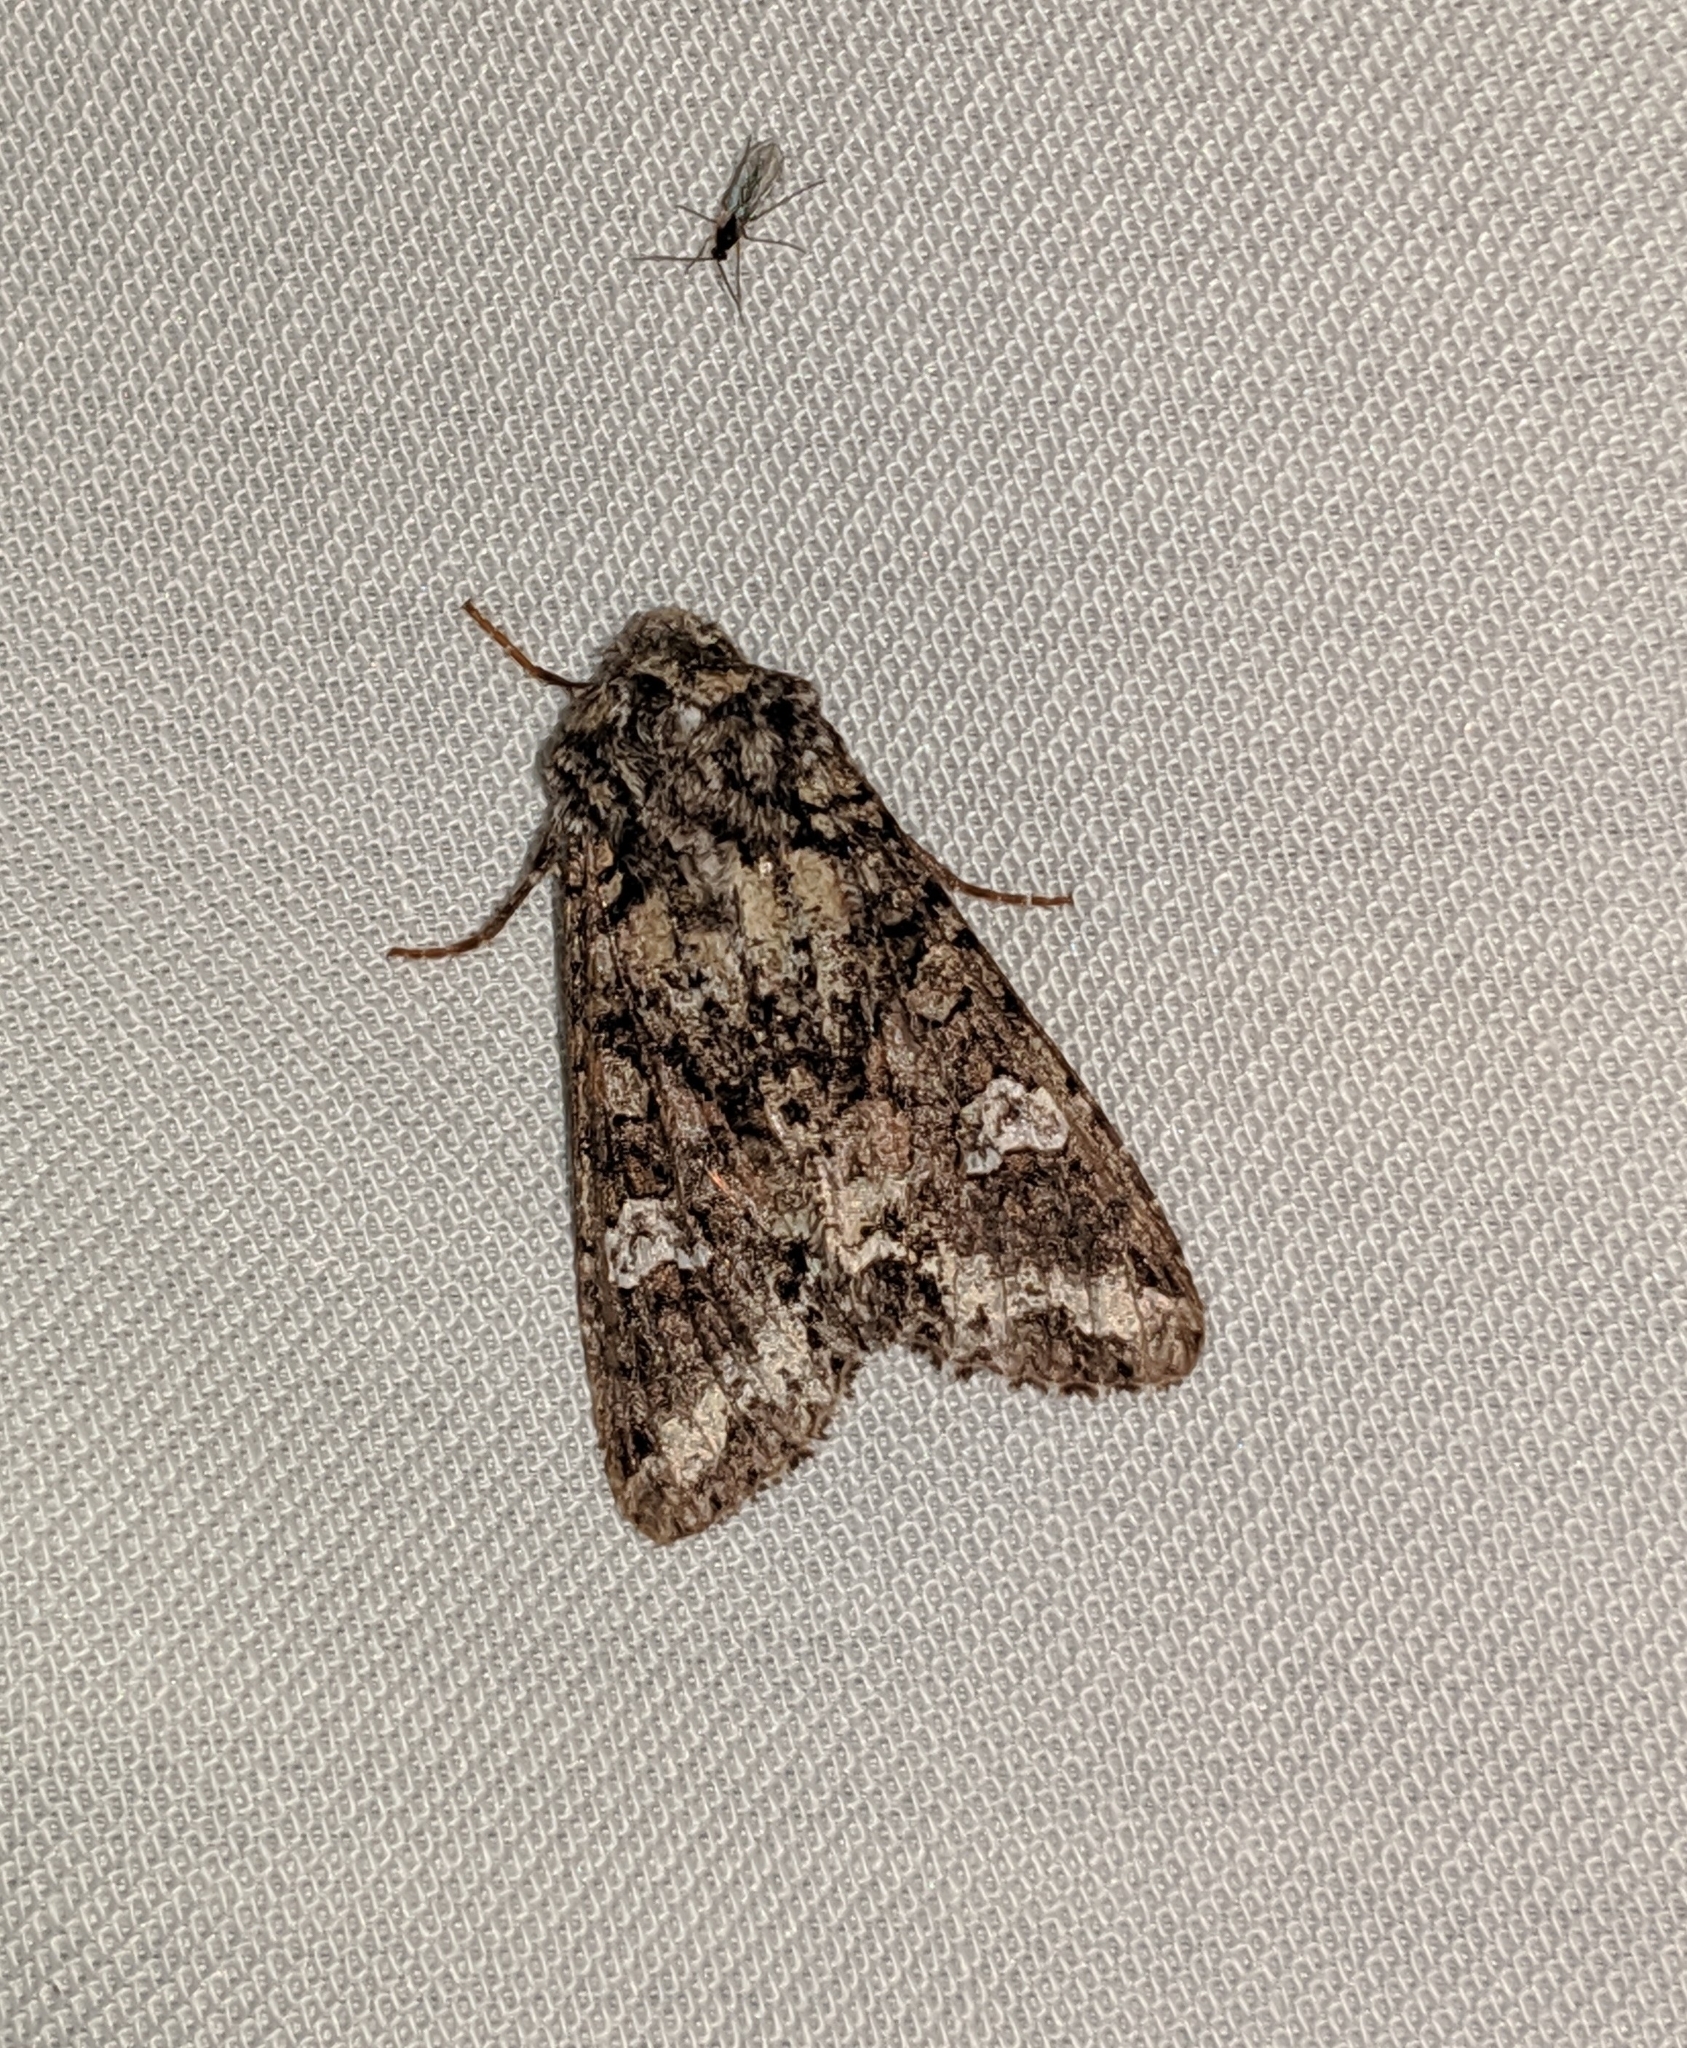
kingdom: Animalia
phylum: Arthropoda
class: Insecta
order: Lepidoptera
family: Noctuidae
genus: Mamestra
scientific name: Mamestra configurata
